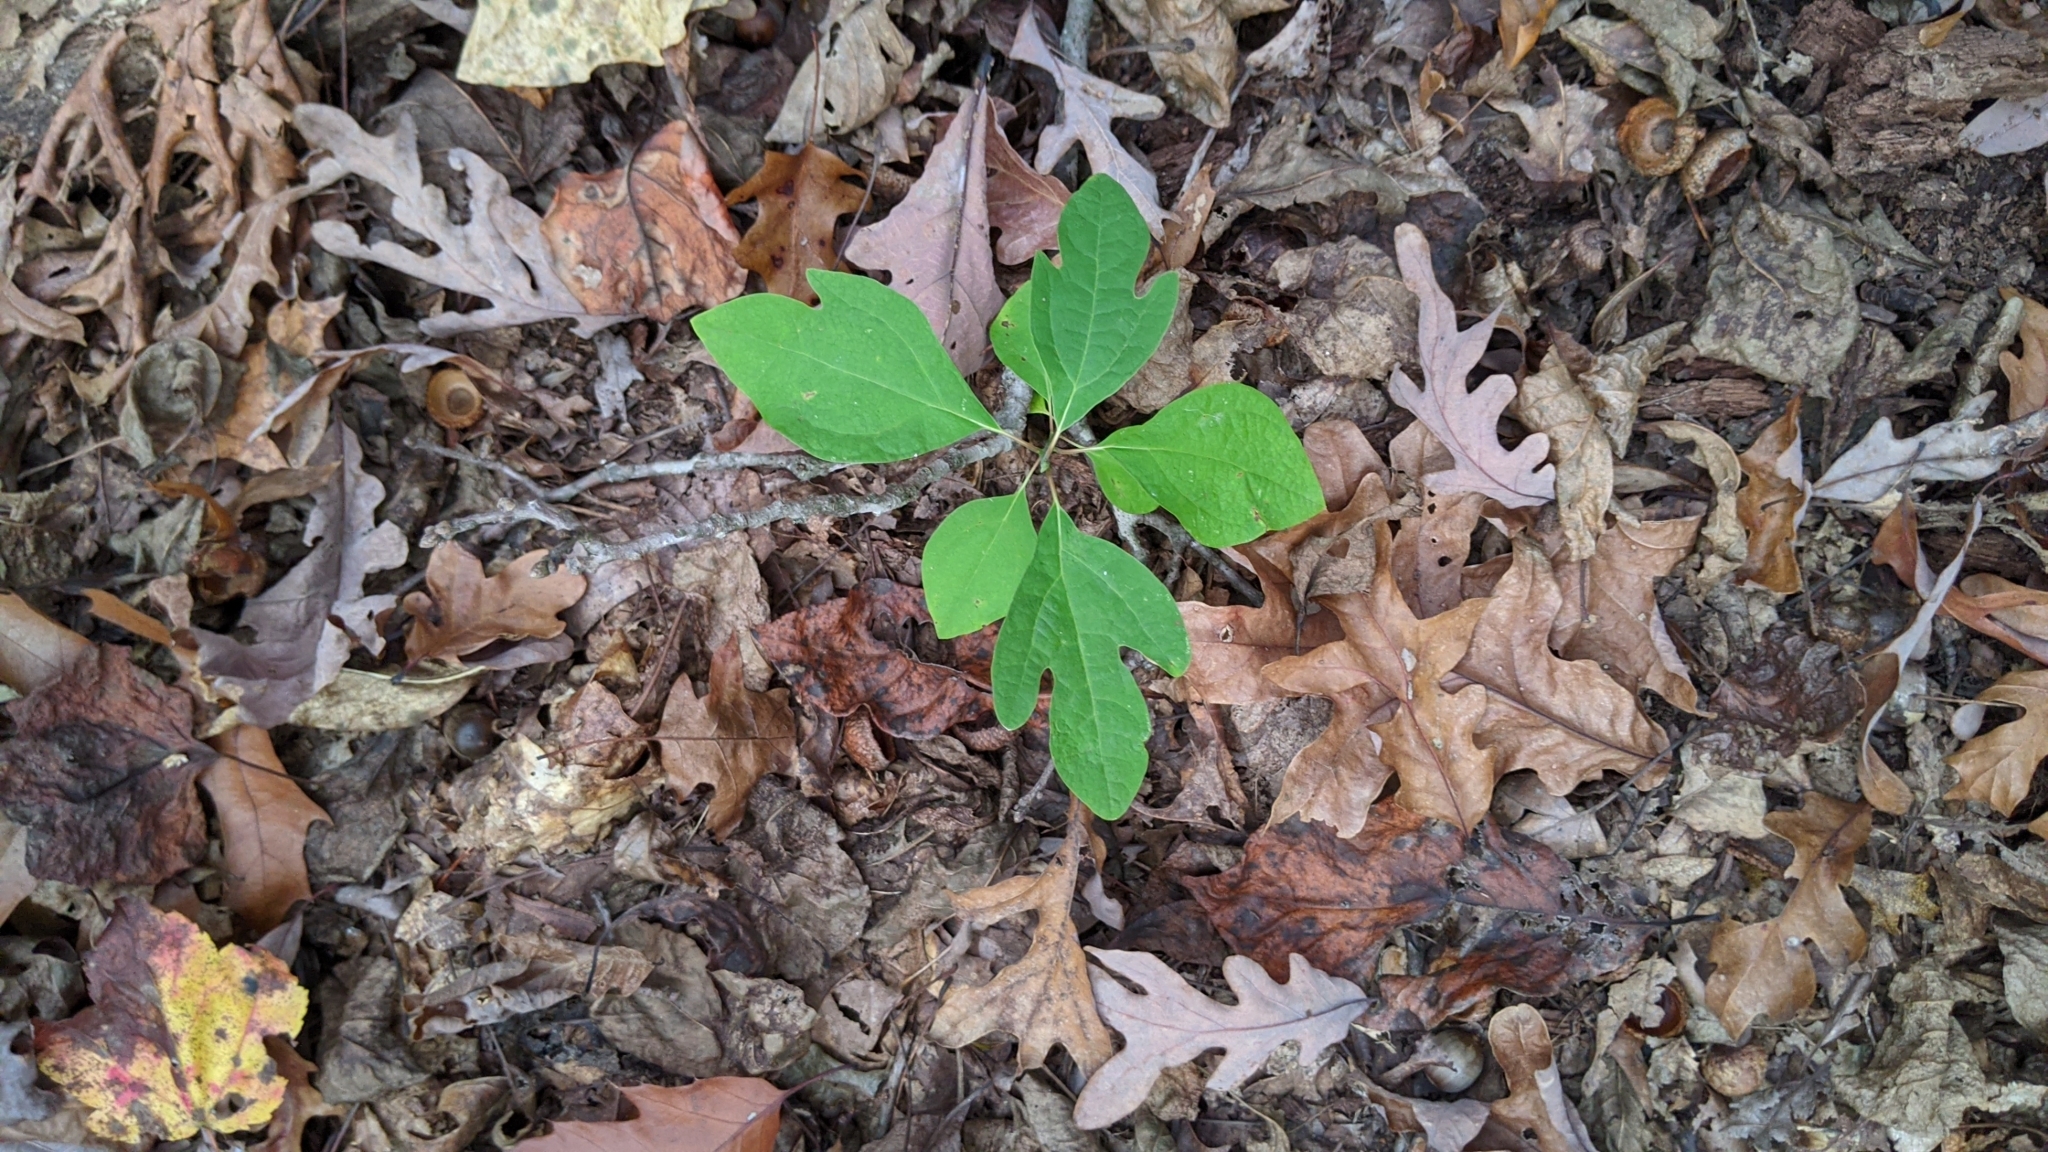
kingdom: Plantae
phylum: Tracheophyta
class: Magnoliopsida
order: Laurales
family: Lauraceae
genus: Sassafras
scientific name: Sassafras albidum
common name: Sassafras
